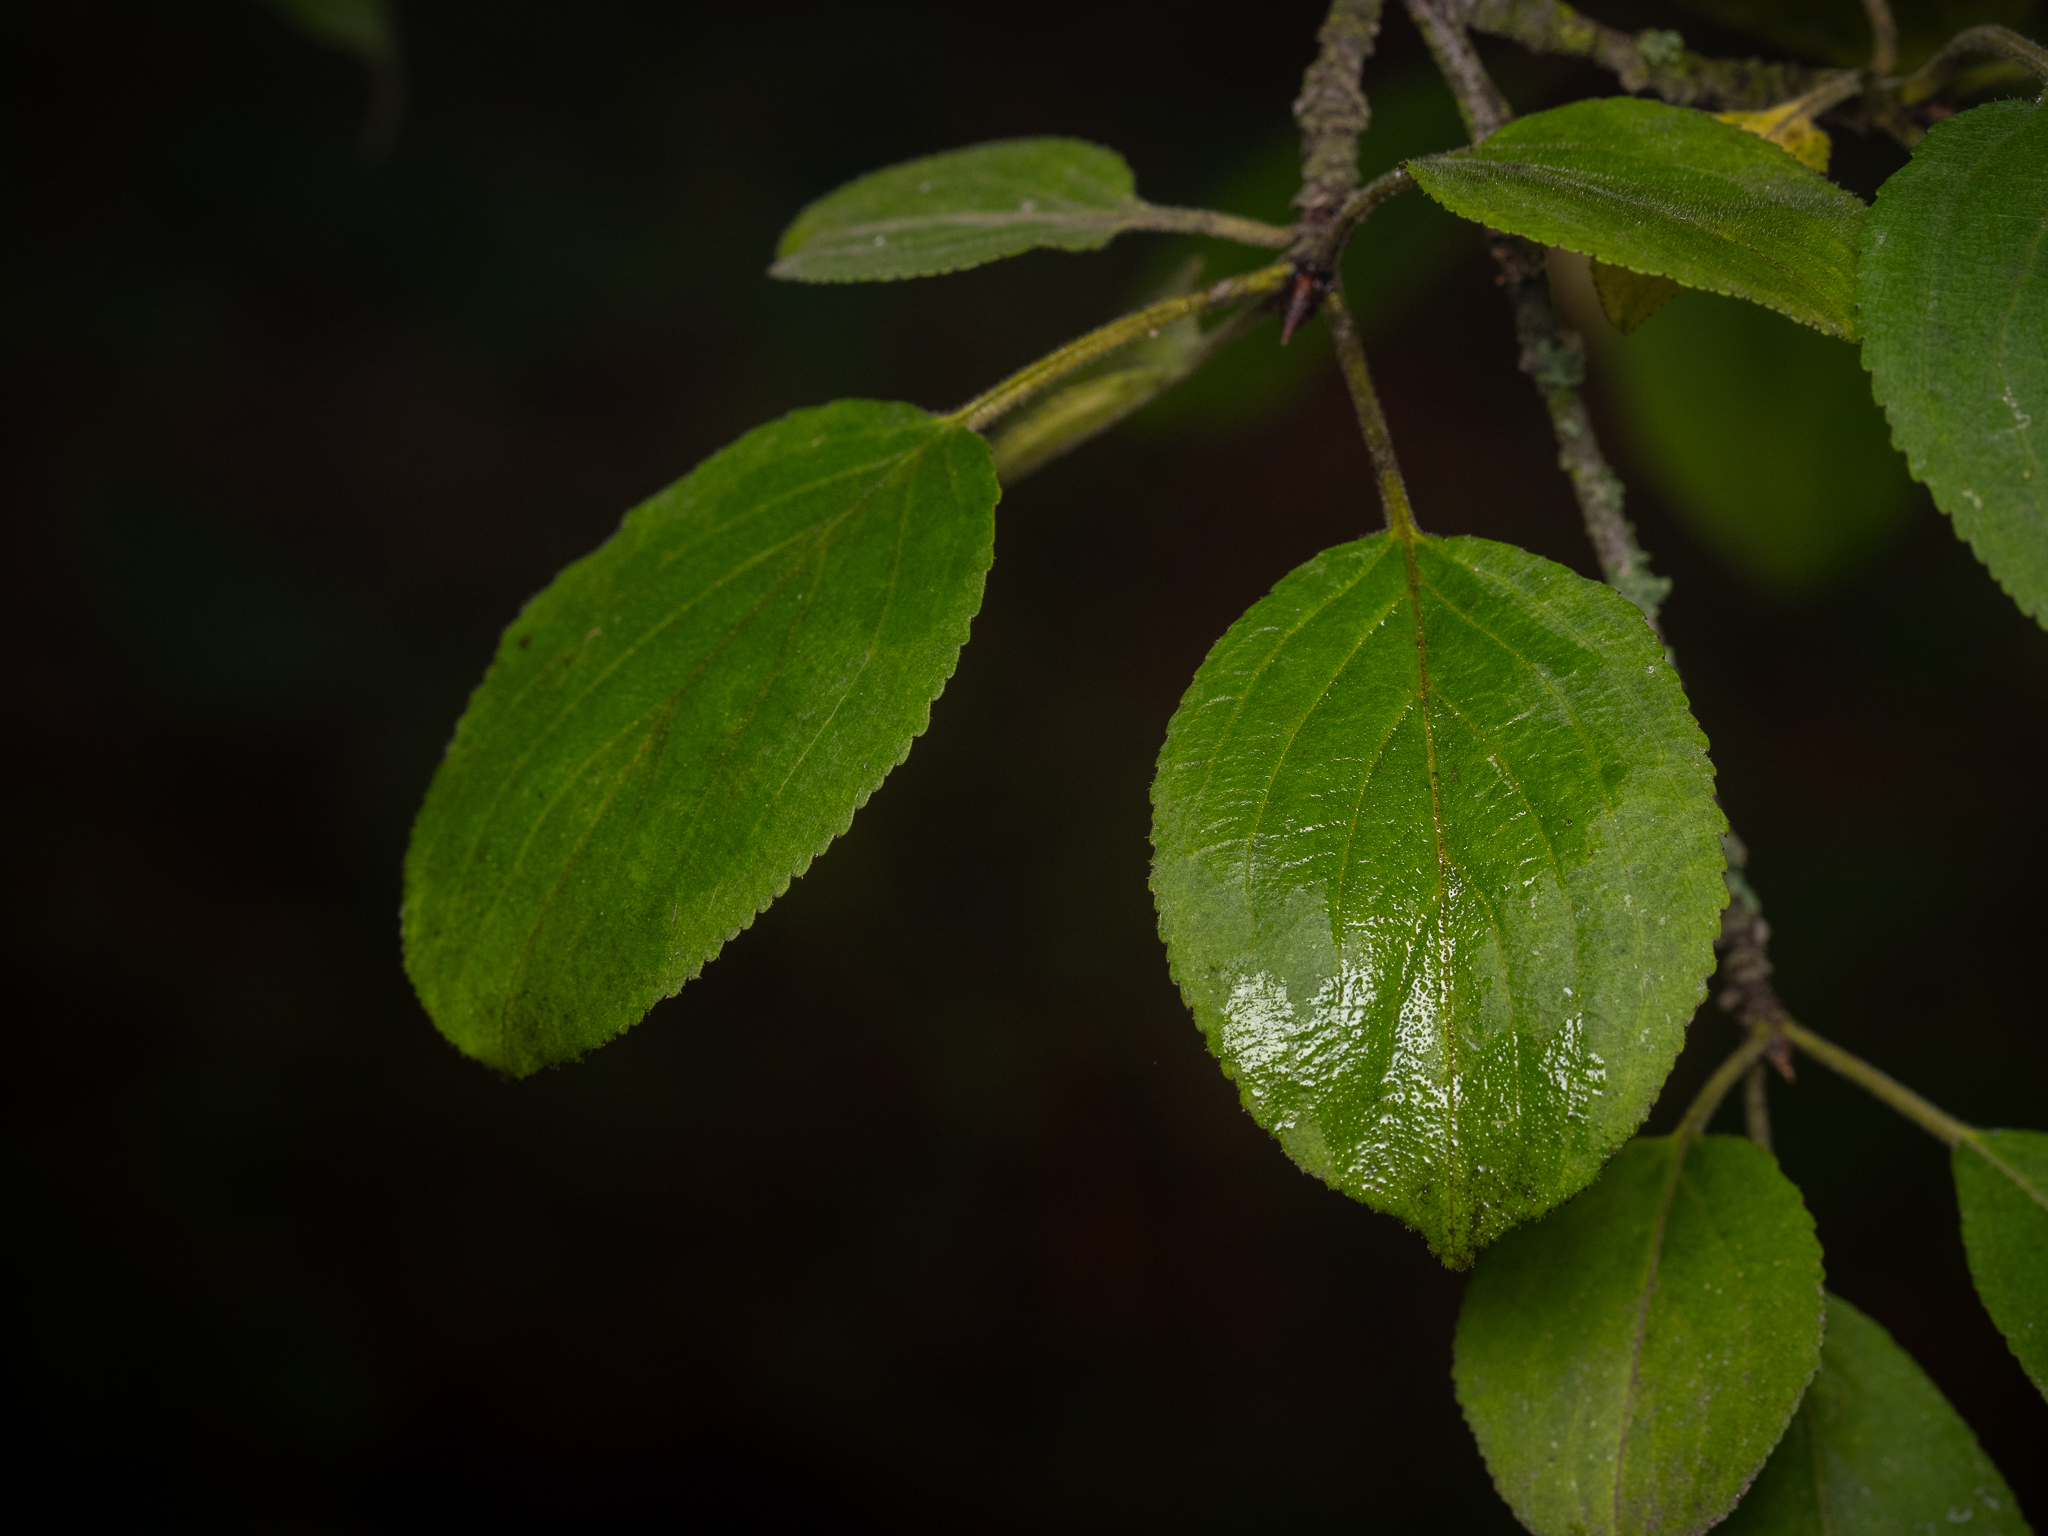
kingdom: Plantae
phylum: Tracheophyta
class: Magnoliopsida
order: Rosales
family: Rhamnaceae
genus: Rhamnus
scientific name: Rhamnus cathartica
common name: Common buckthorn
